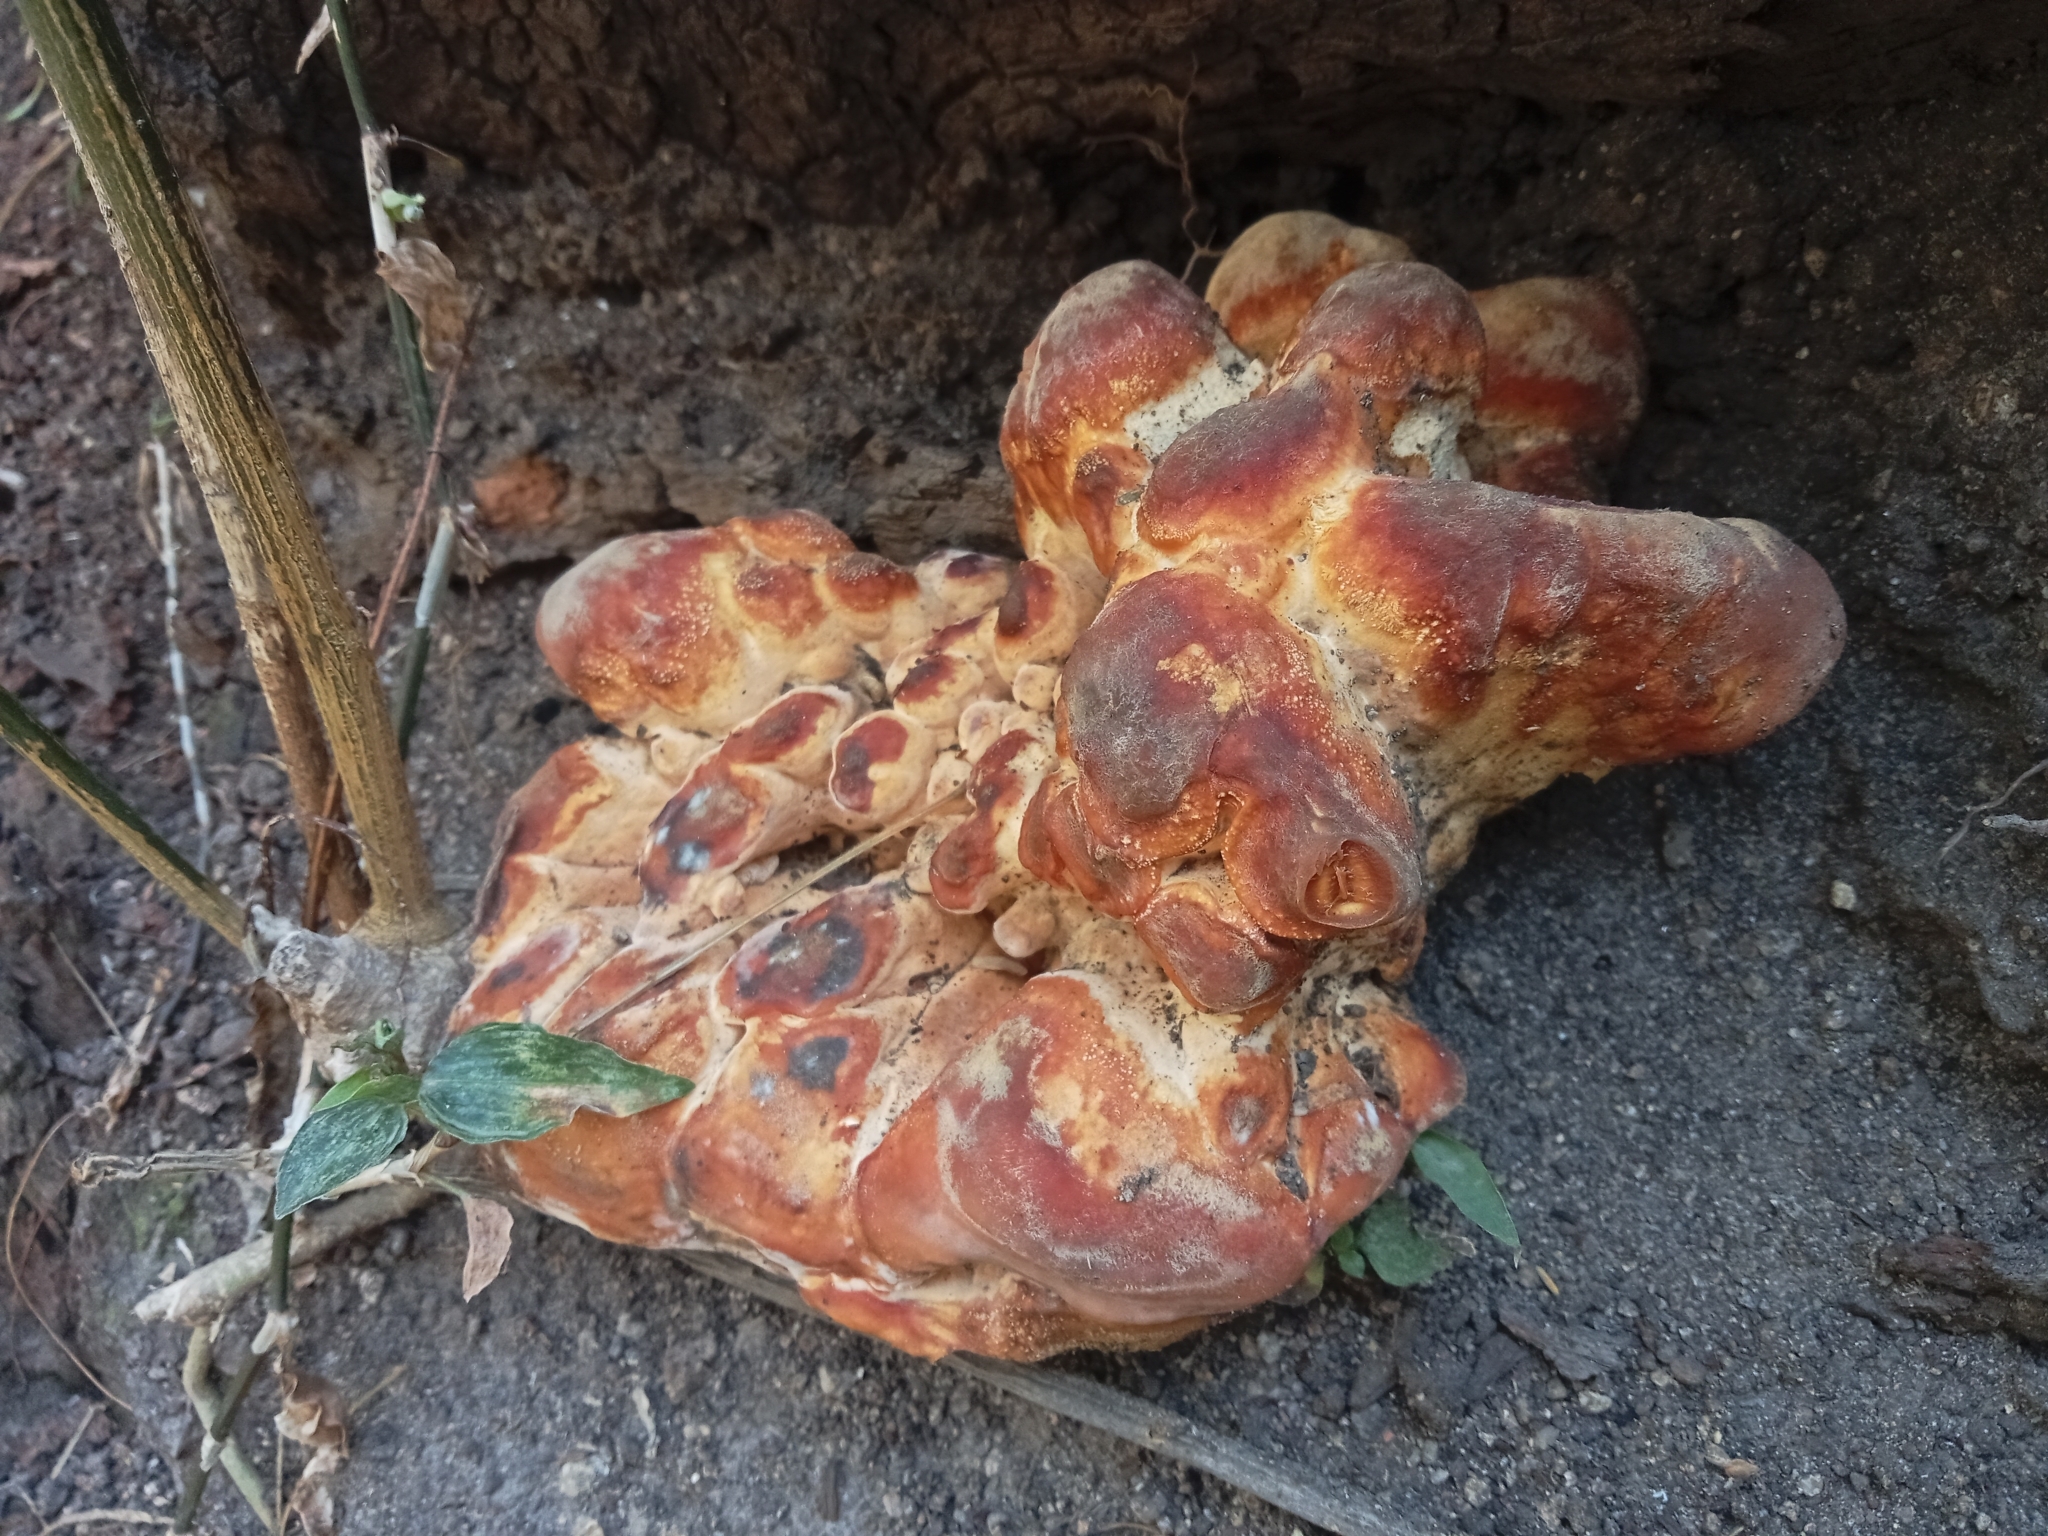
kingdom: Fungi
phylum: Basidiomycota
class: Agaricomycetes
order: Polyporales
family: Polyporaceae
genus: Ganoderma
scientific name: Ganoderma polychromum
